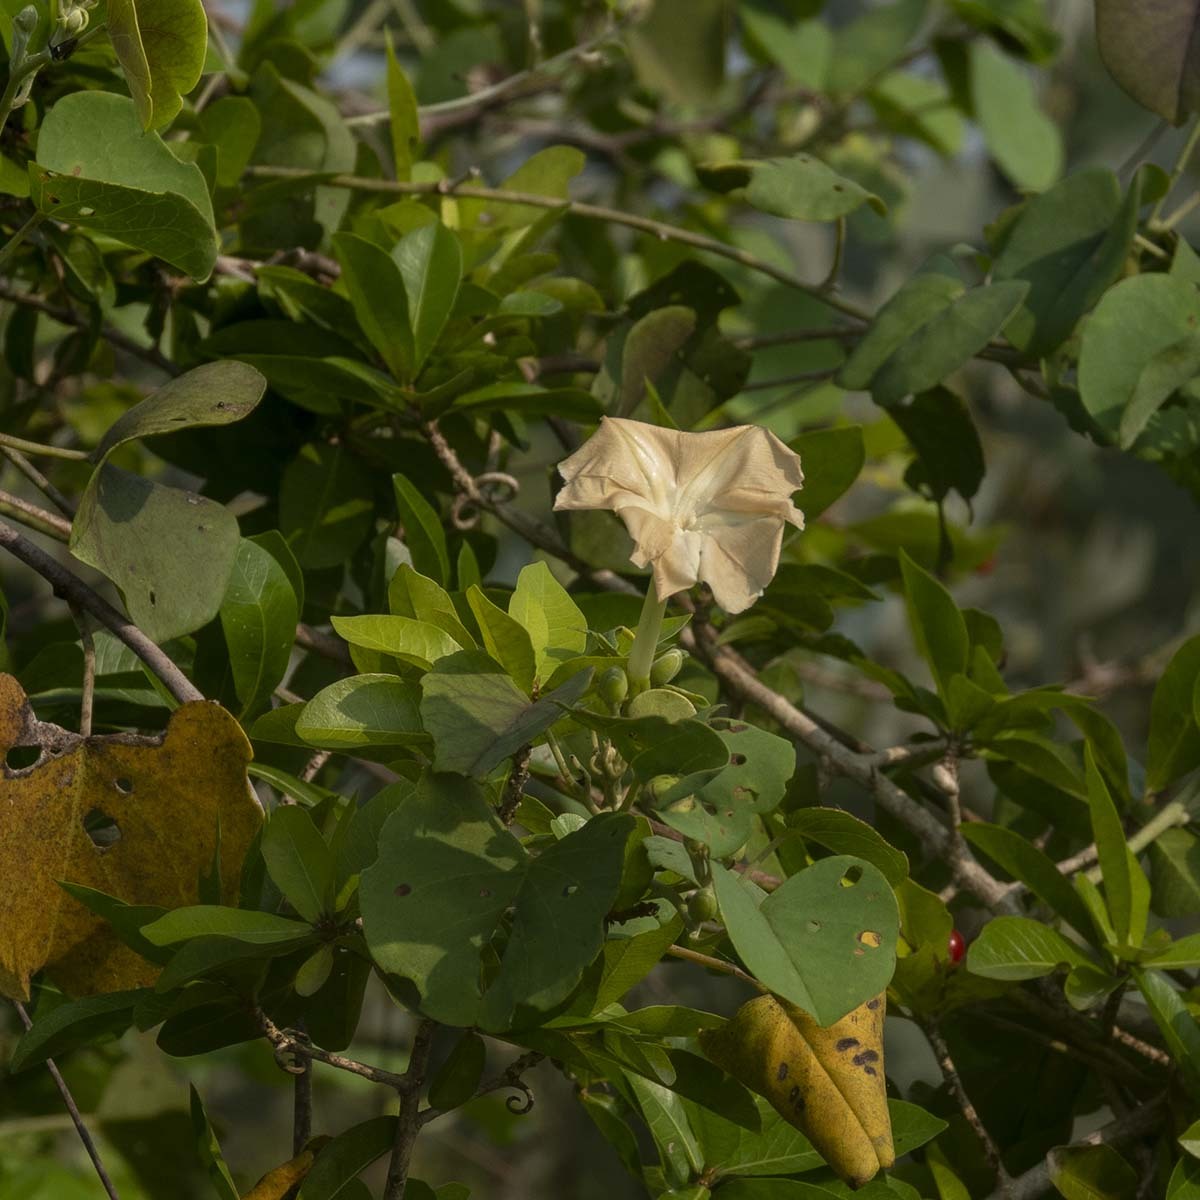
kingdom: Plantae
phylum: Tracheophyta
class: Magnoliopsida
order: Solanales
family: Convolvulaceae
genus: Rivea
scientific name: Rivea hypocrateriformis
